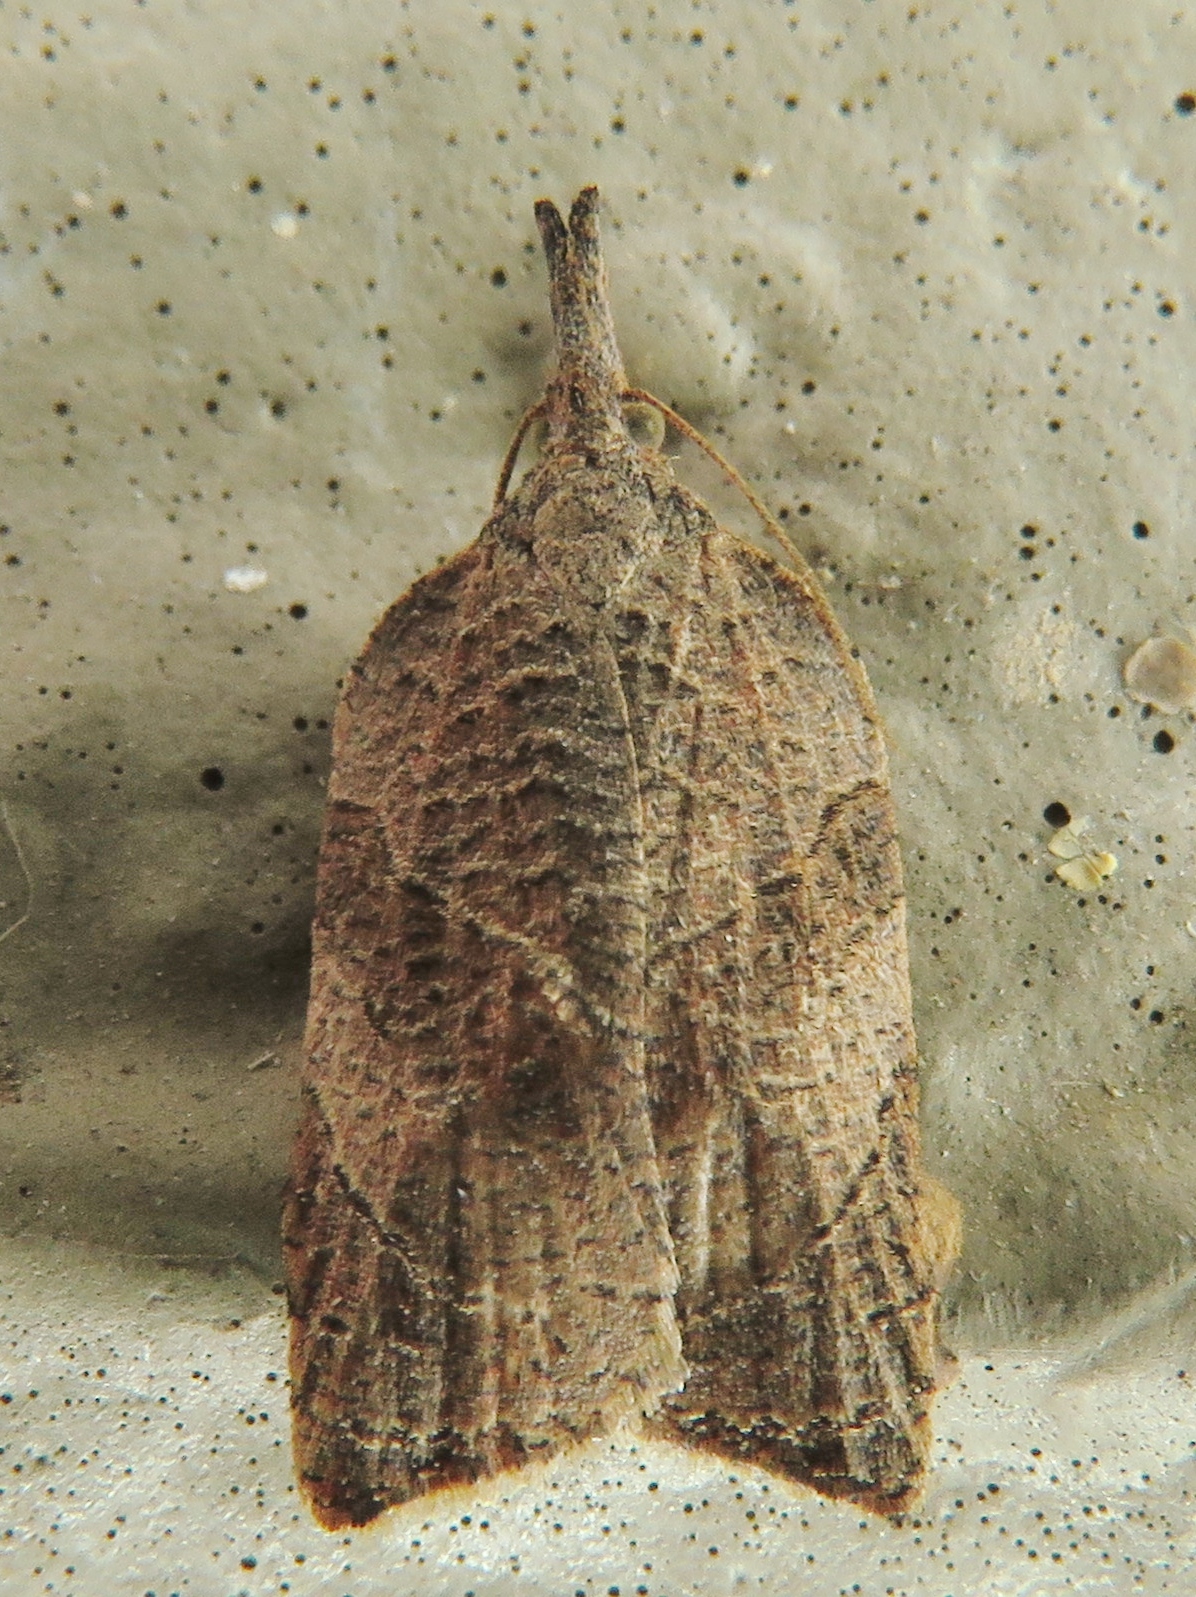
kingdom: Animalia
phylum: Arthropoda
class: Insecta
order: Lepidoptera
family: Tortricidae
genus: Platynota
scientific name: Platynota rostrana
